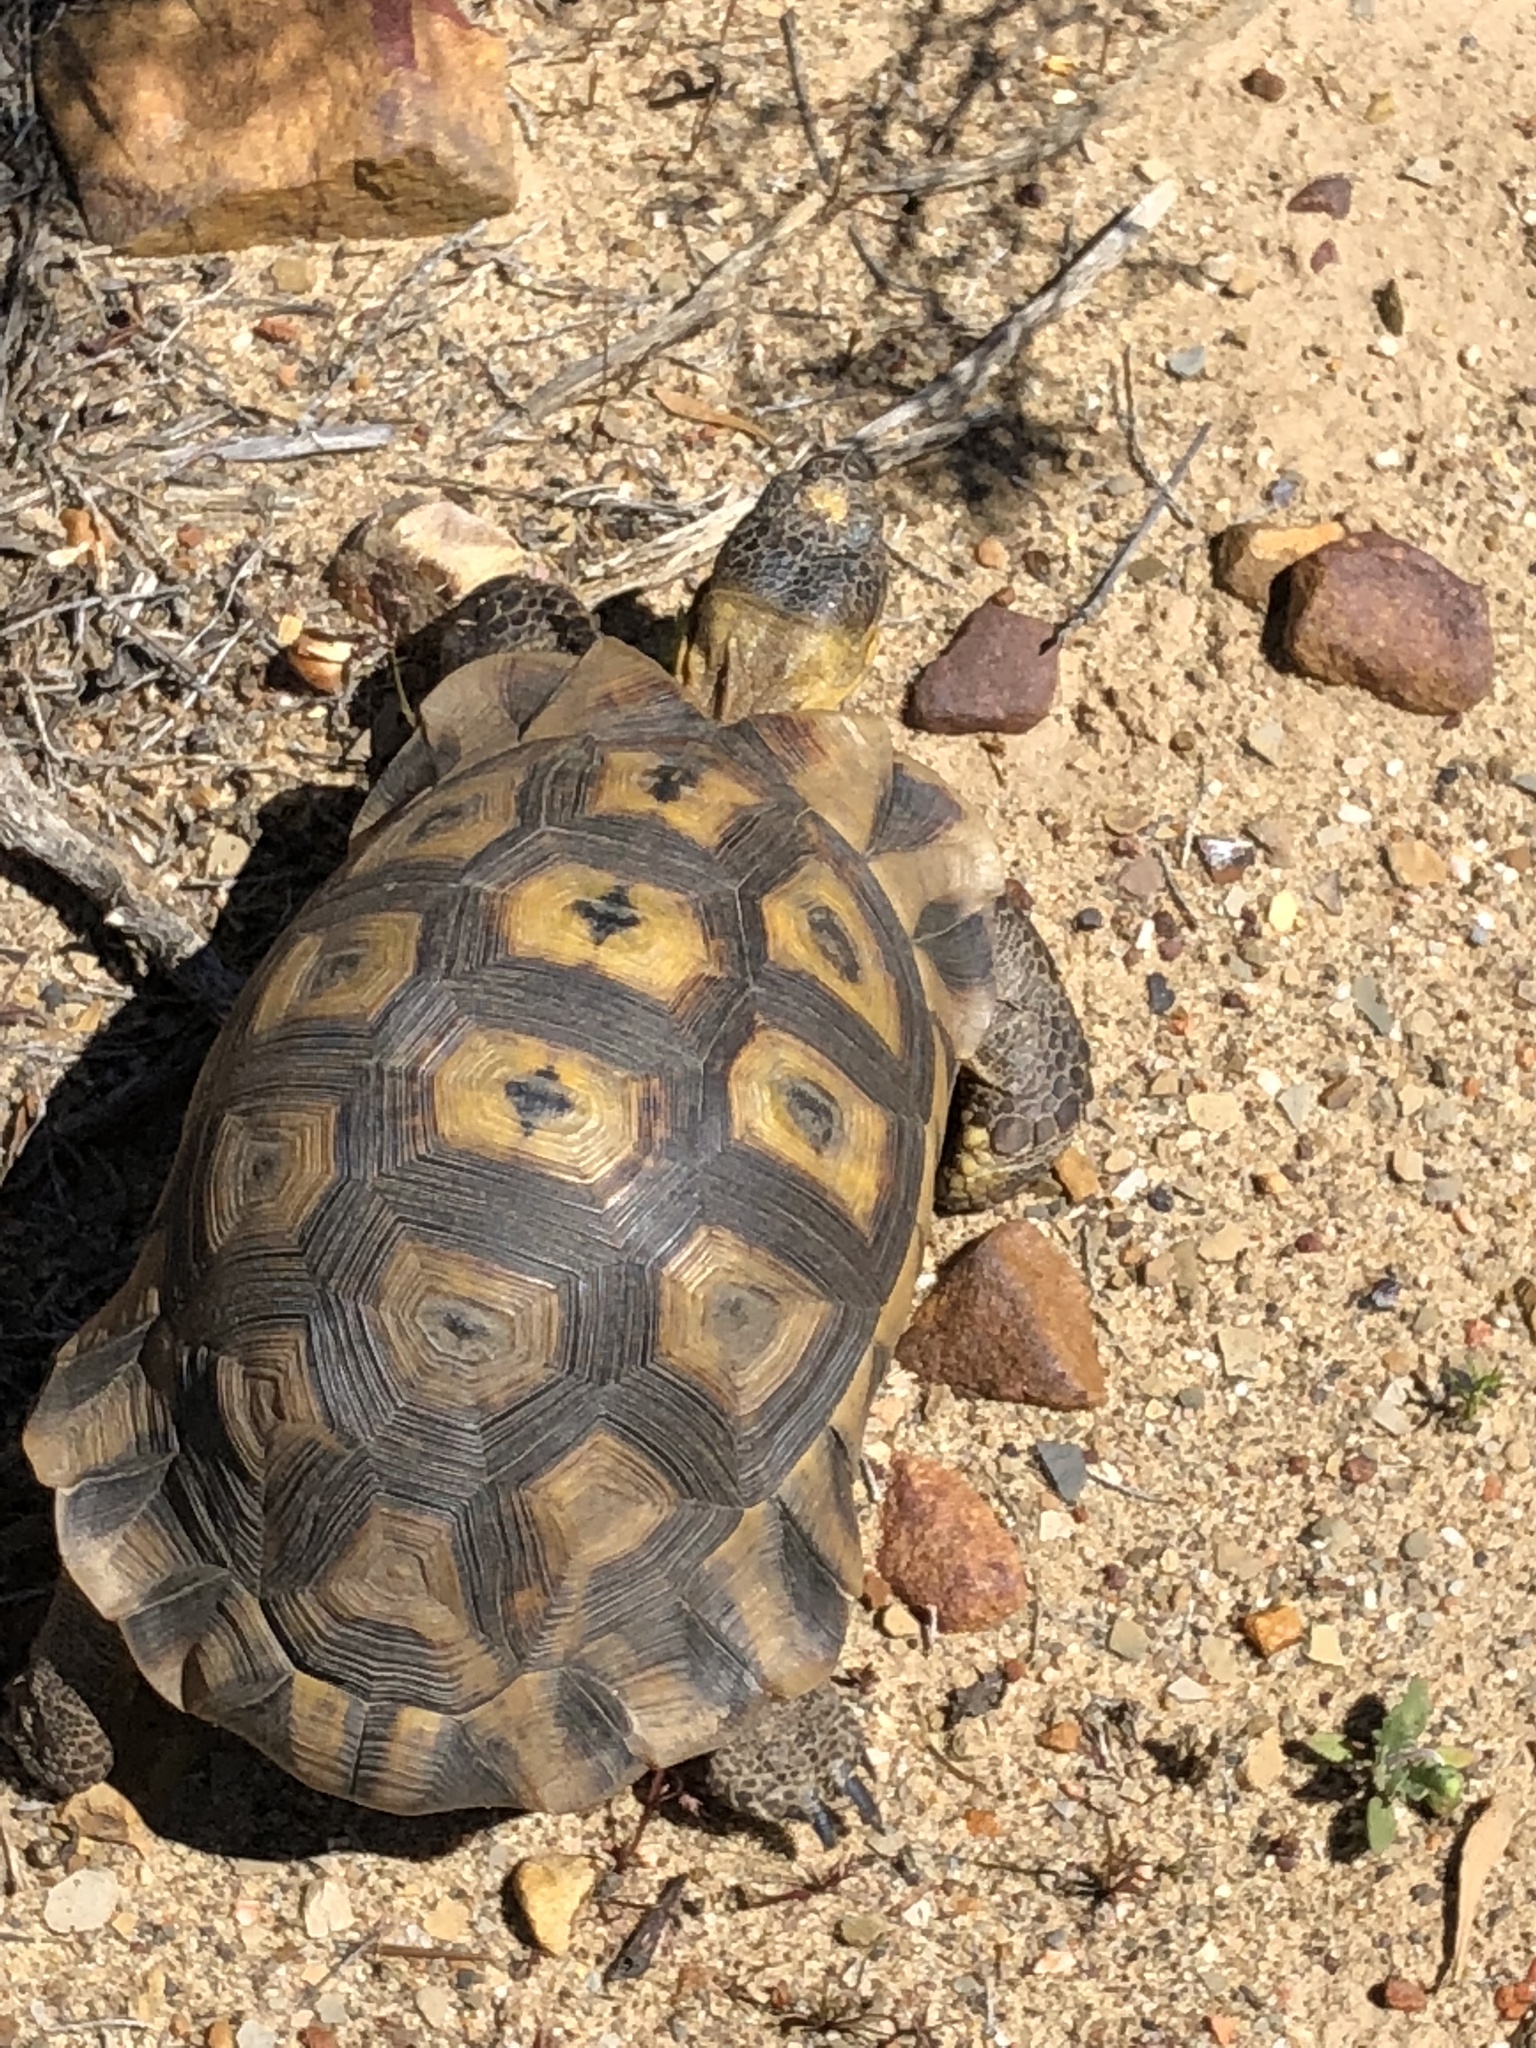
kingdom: Animalia
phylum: Chordata
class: Testudines
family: Testudinidae
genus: Chersina
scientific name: Chersina angulata
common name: South african bowsprit tortoise
